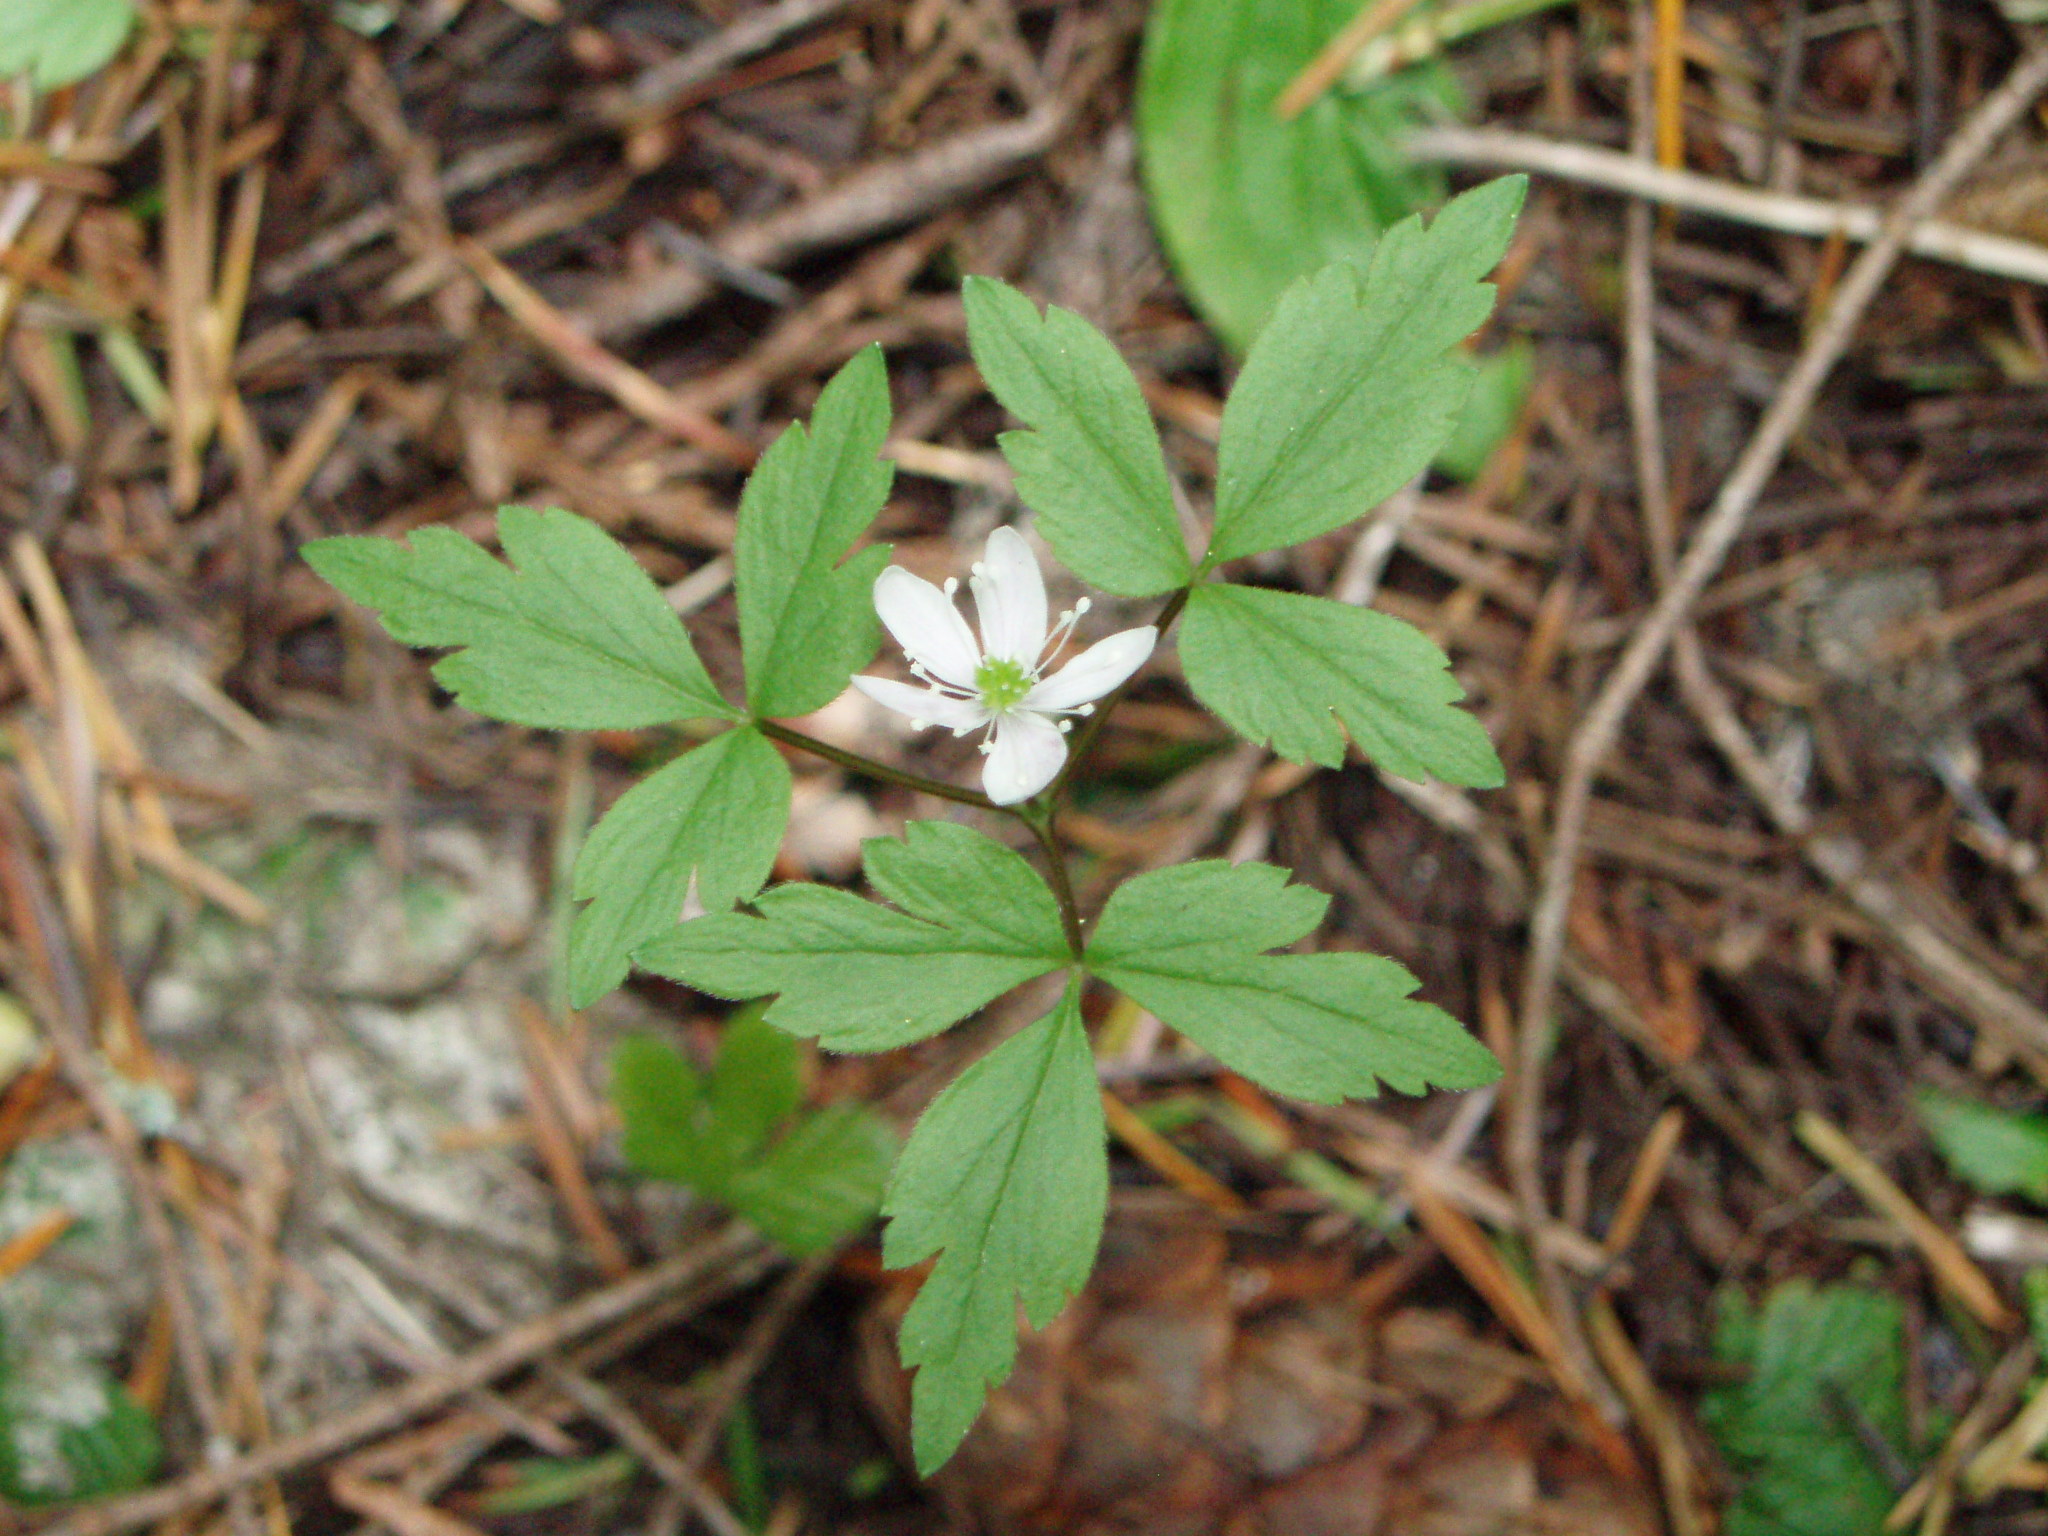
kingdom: Plantae
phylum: Tracheophyta
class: Magnoliopsida
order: Ranunculales
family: Ranunculaceae
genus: Anemone
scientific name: Anemone
